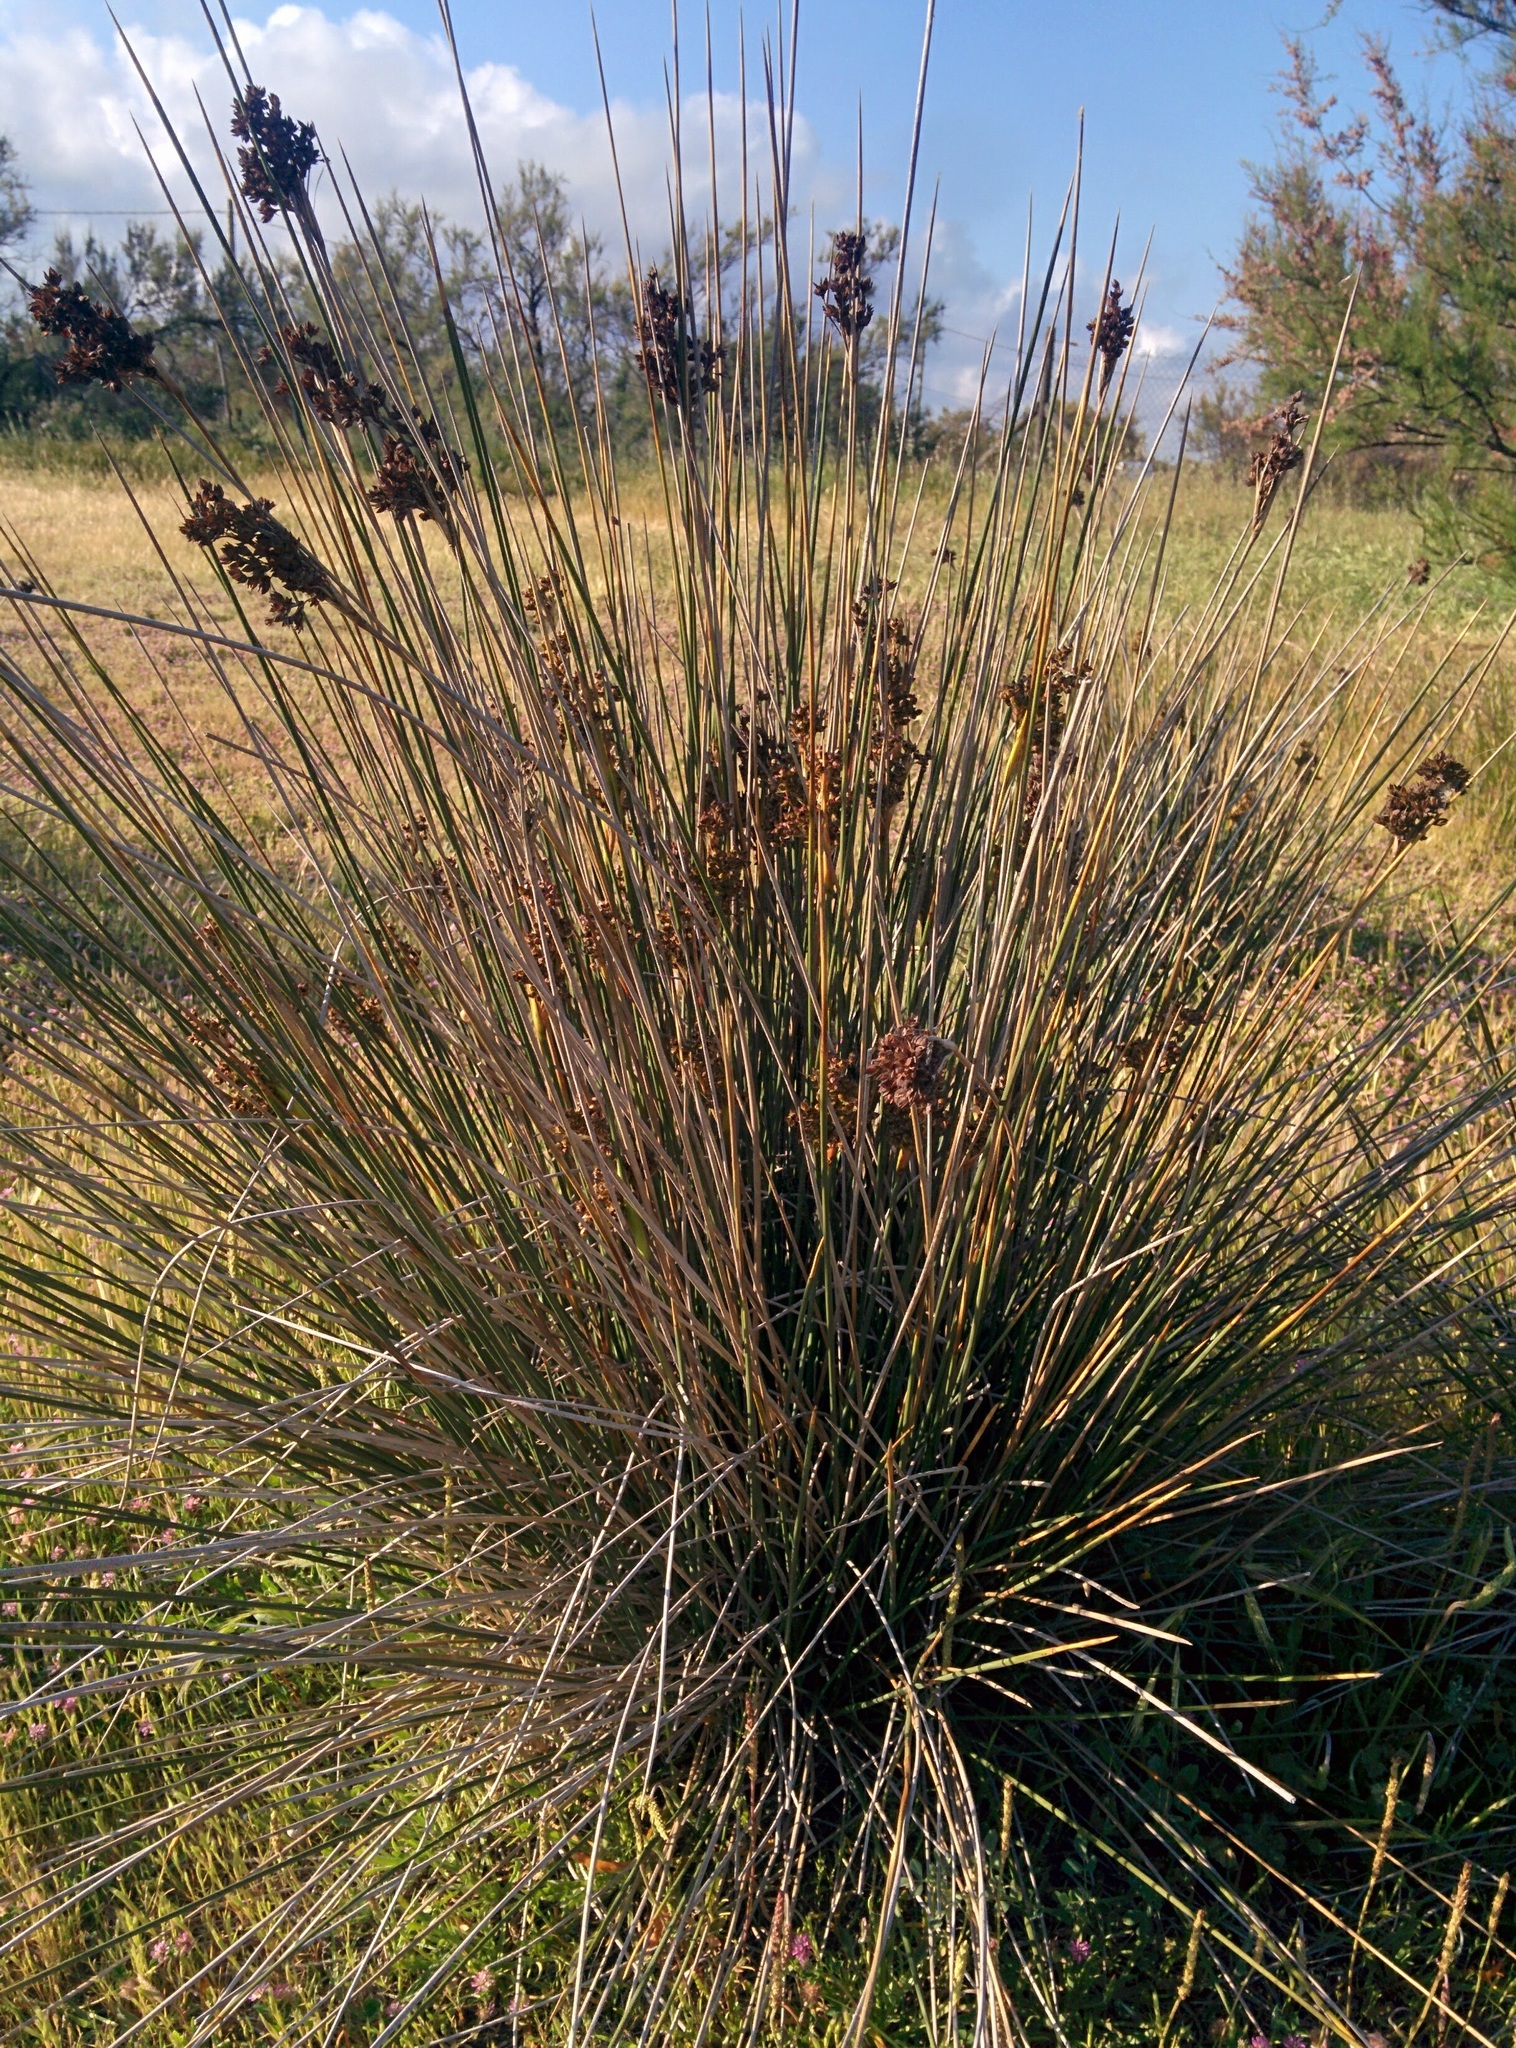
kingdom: Plantae
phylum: Tracheophyta
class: Liliopsida
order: Poales
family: Juncaceae
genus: Juncus
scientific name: Juncus acutus
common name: Sharp rush
